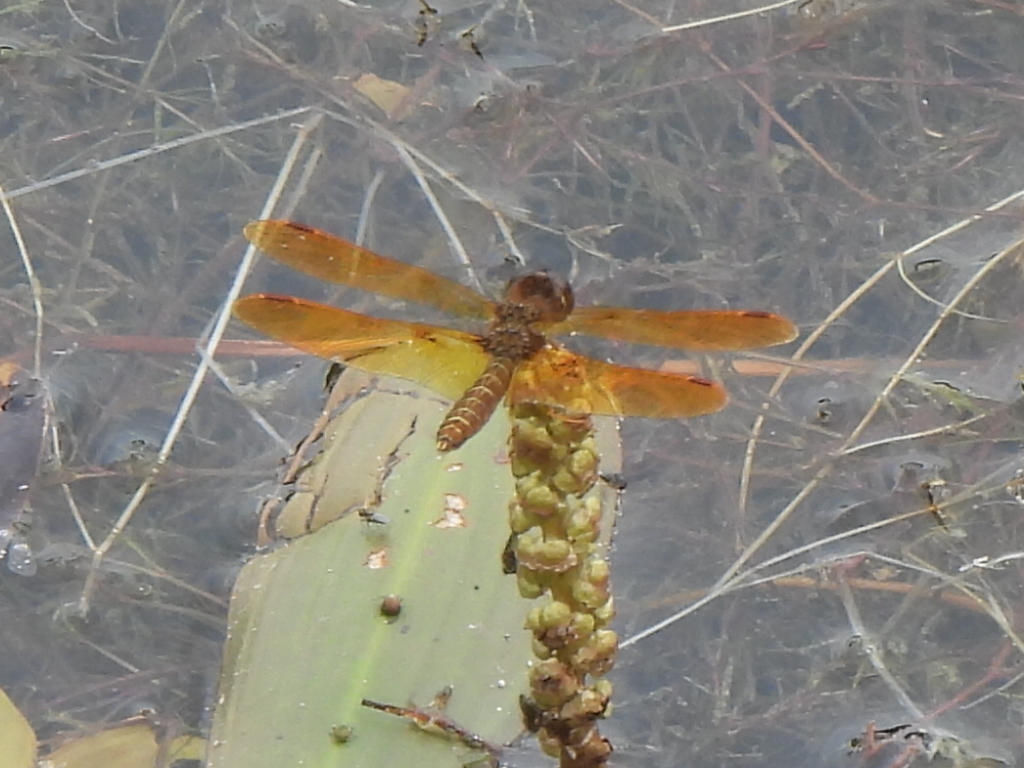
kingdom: Animalia
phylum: Arthropoda
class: Insecta
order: Odonata
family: Libellulidae
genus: Perithemis
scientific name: Perithemis tenera
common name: Eastern amberwing
